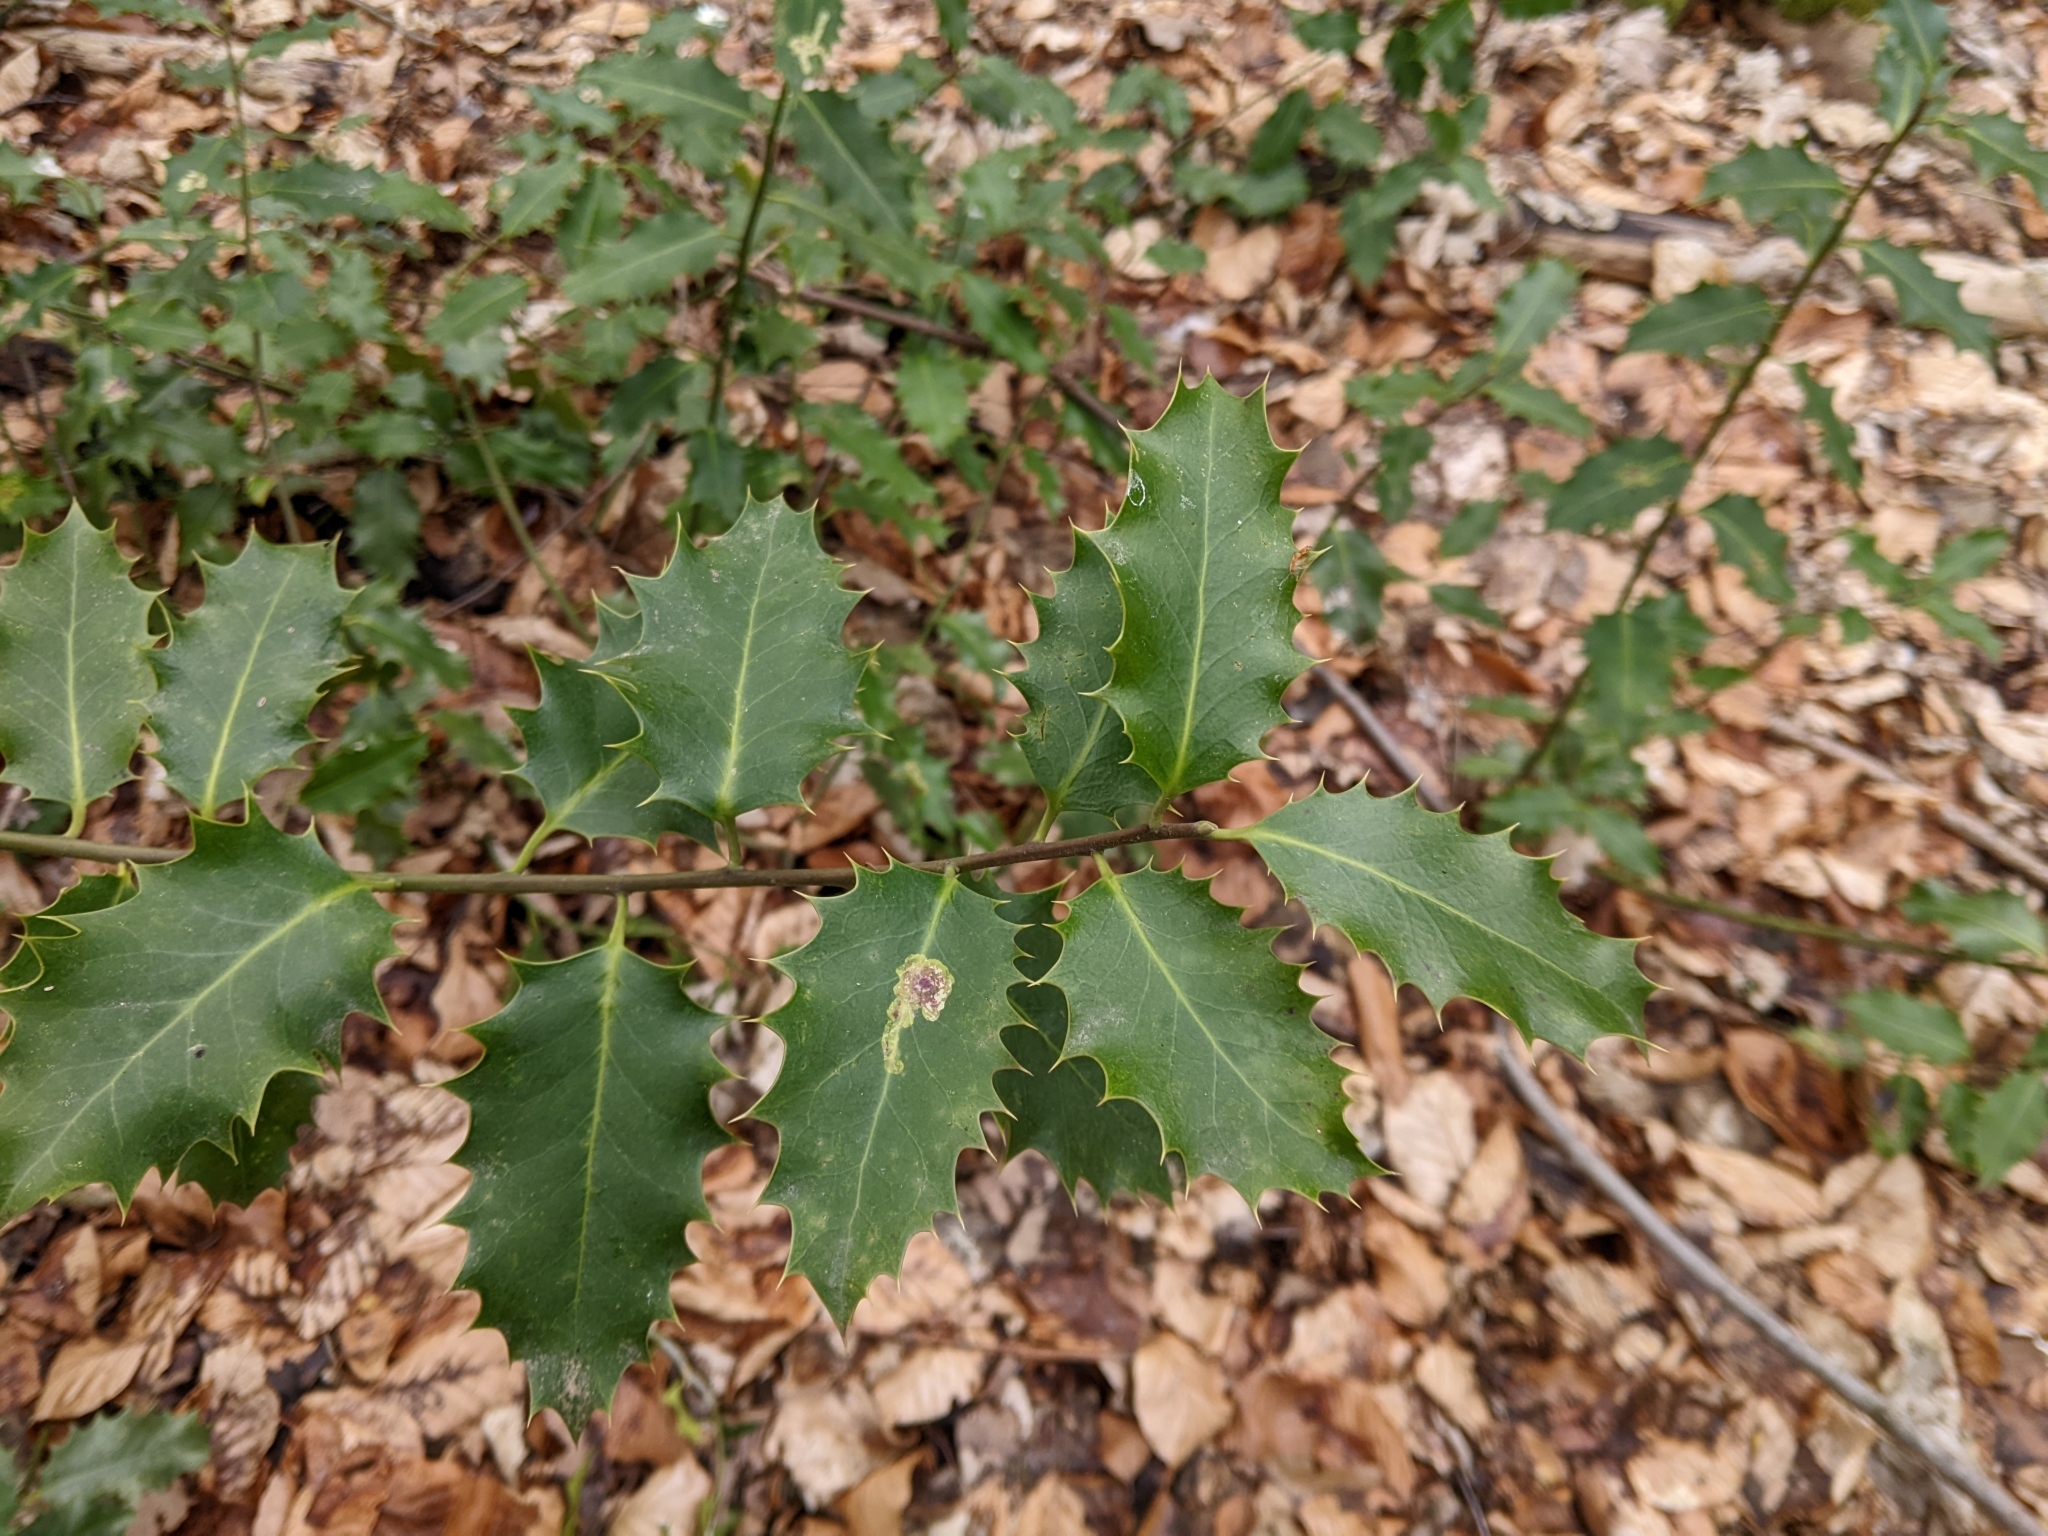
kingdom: Animalia
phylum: Arthropoda
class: Insecta
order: Diptera
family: Agromyzidae
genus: Phytomyza
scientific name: Phytomyza ilicis
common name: Holly leafminer
